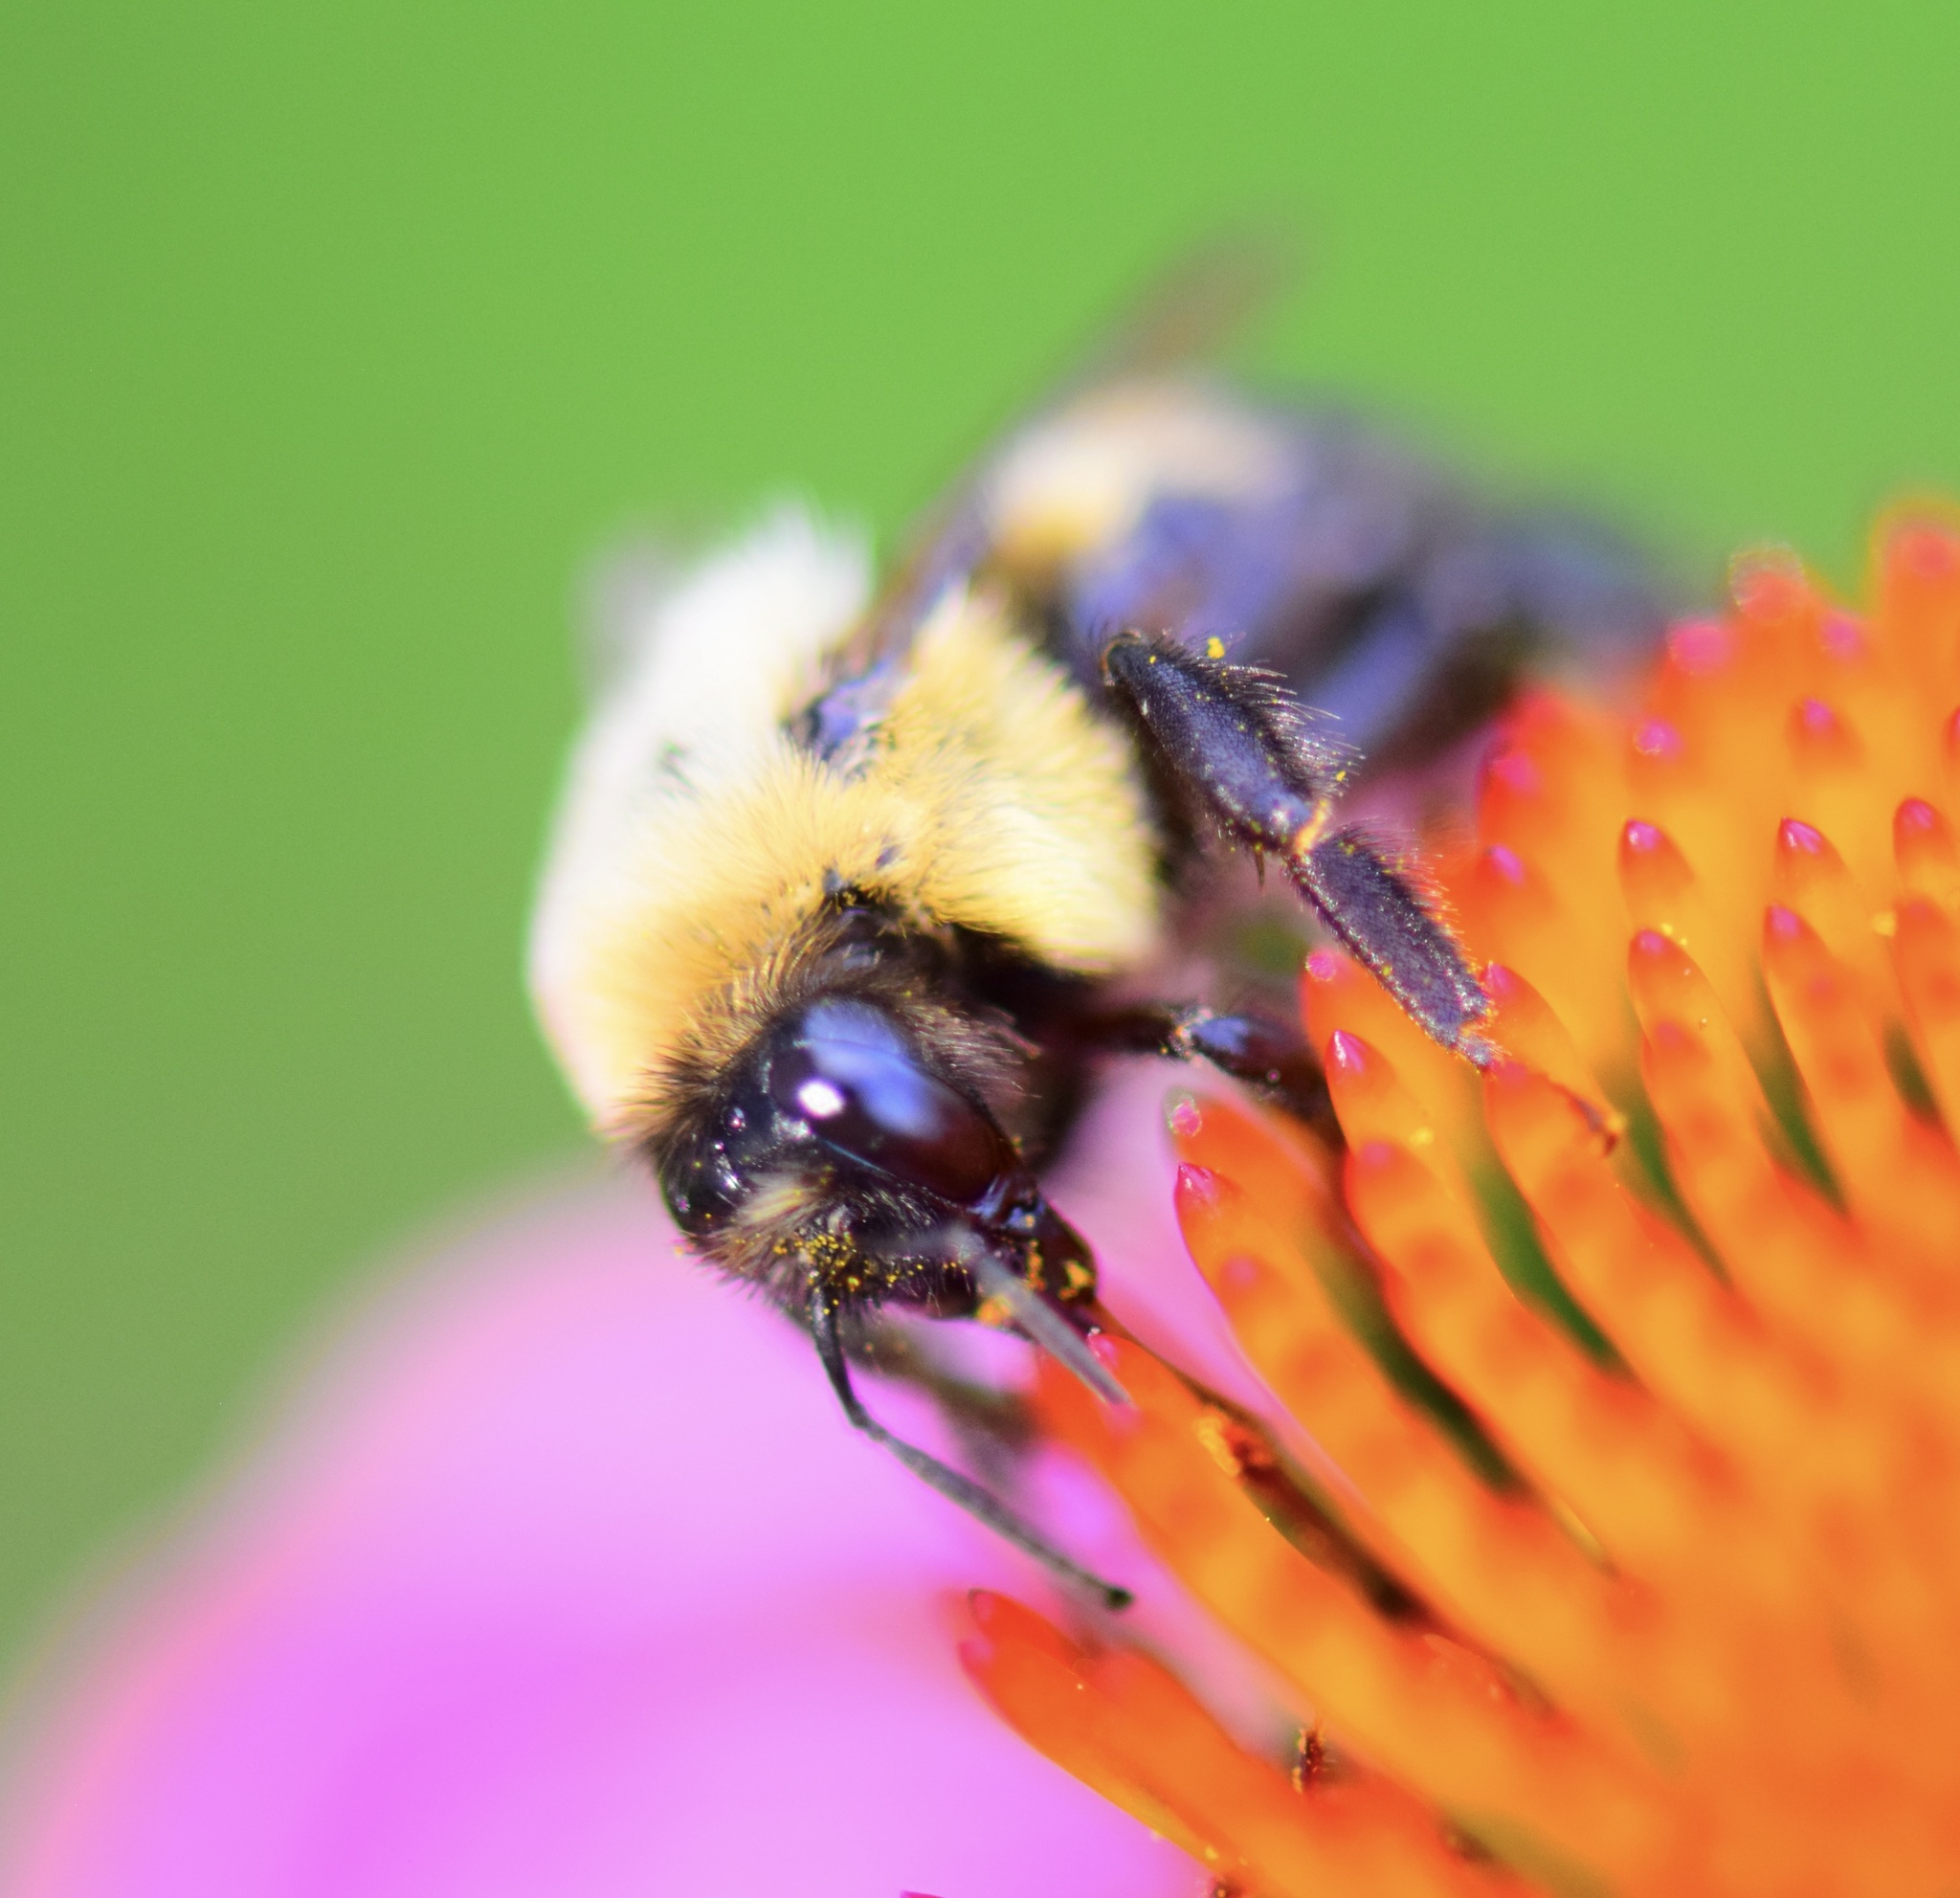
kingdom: Animalia
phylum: Arthropoda
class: Insecta
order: Hymenoptera
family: Apidae
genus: Bombus
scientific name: Bombus griseocollis
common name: Brown-belted bumble bee
